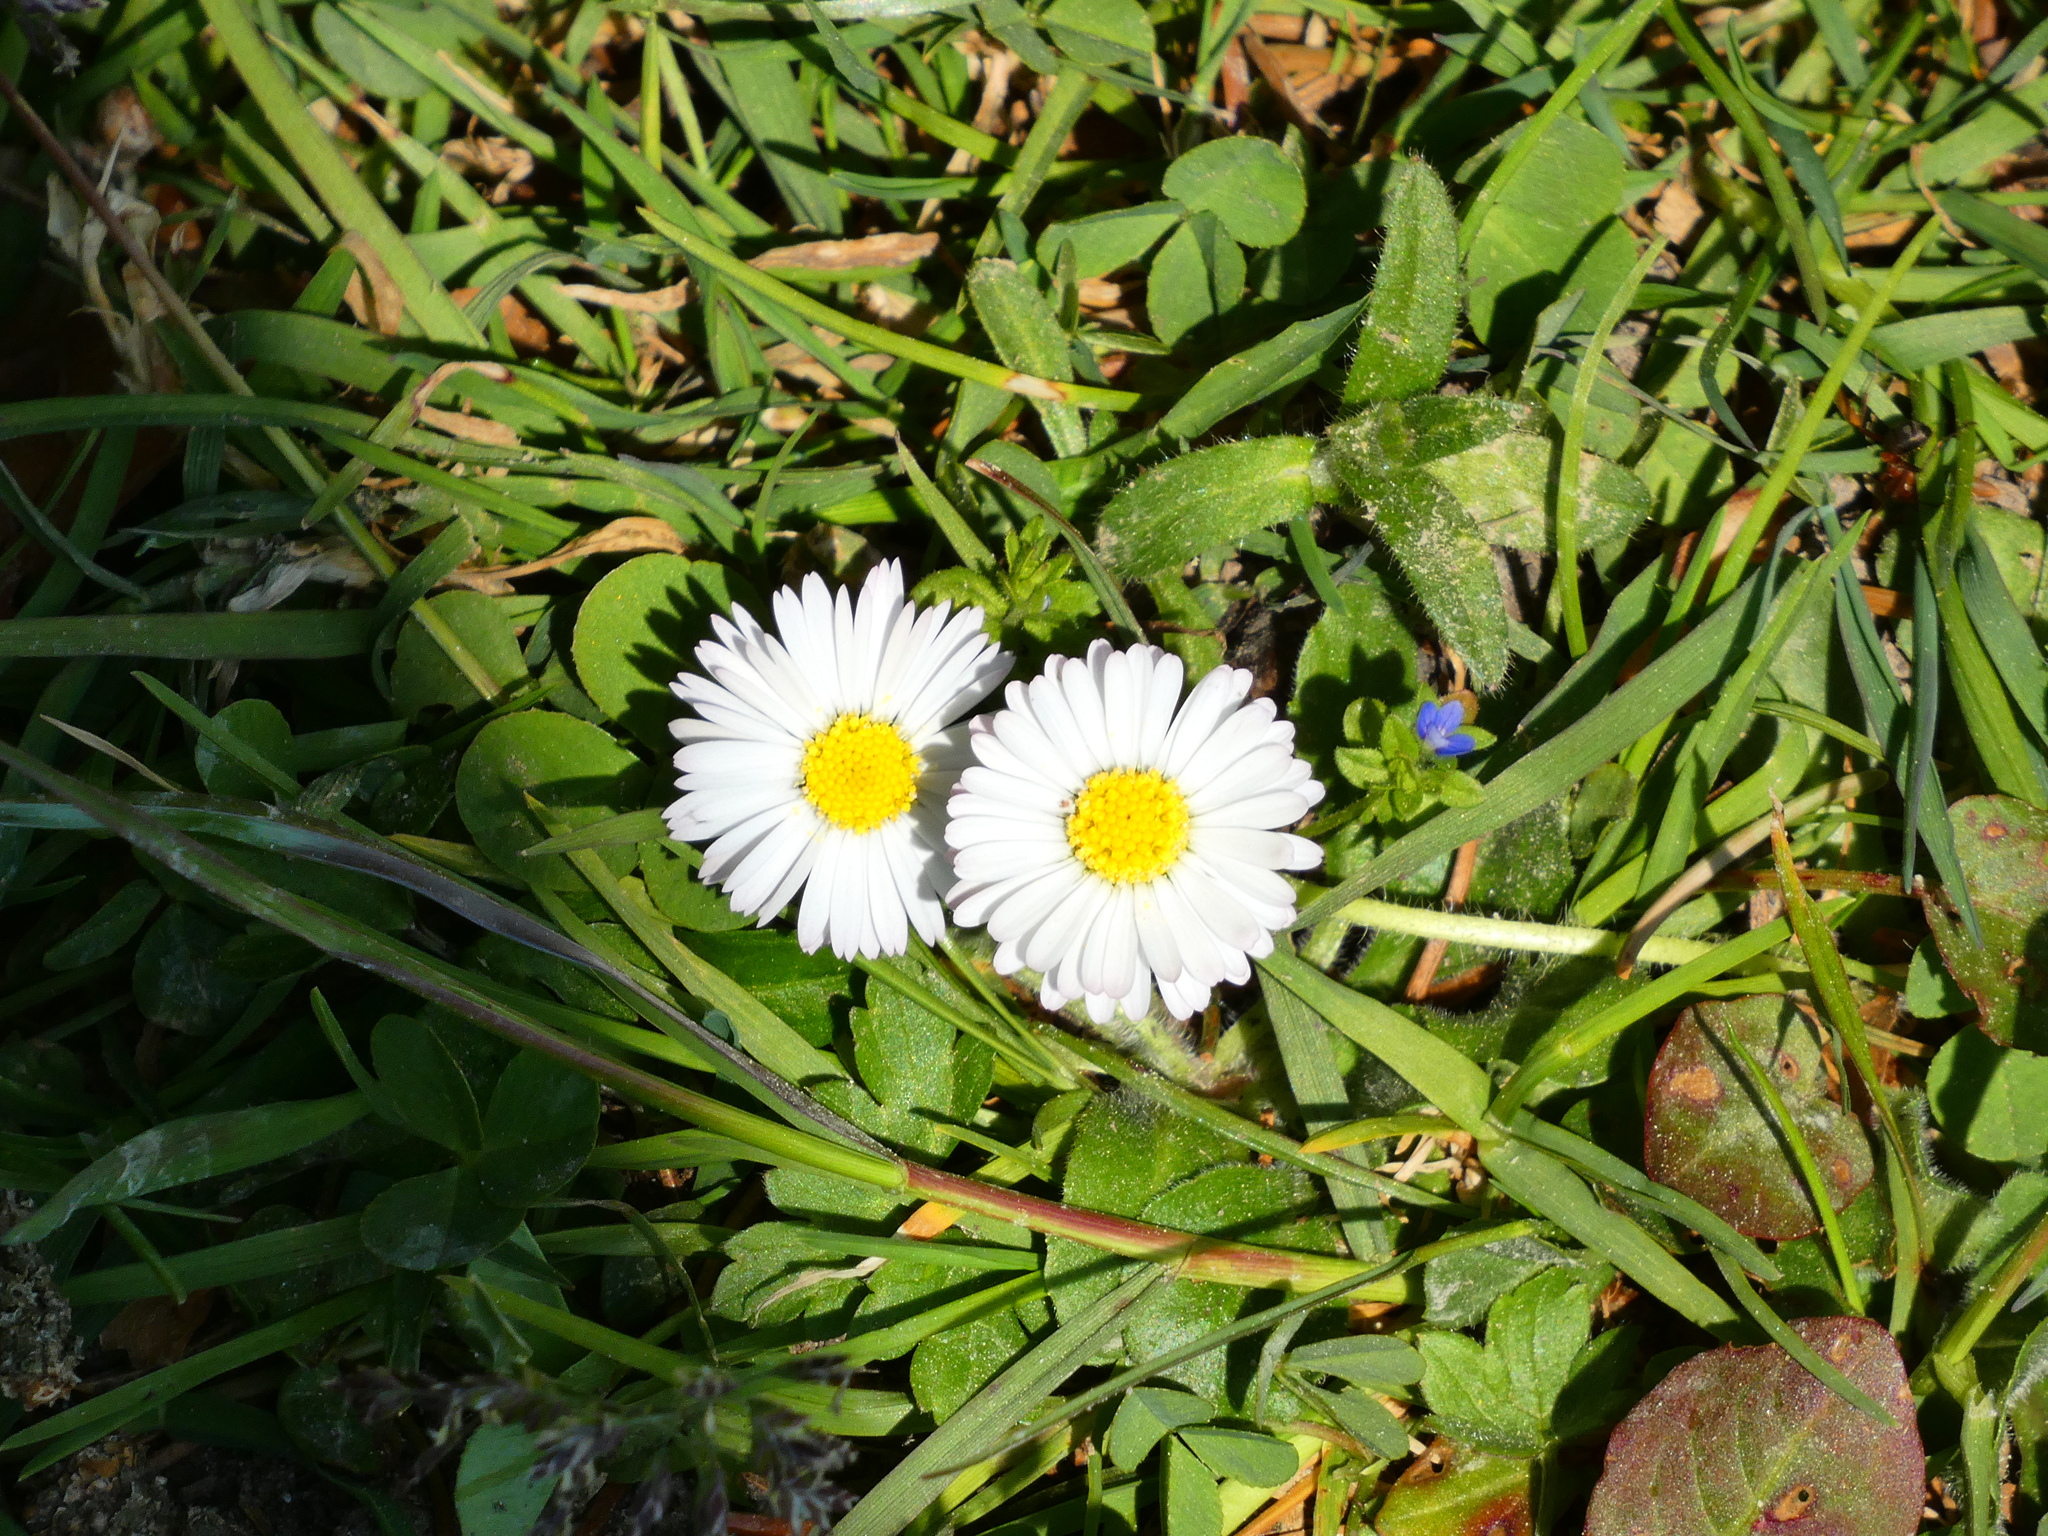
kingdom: Plantae
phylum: Tracheophyta
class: Magnoliopsida
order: Asterales
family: Asteraceae
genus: Bellis
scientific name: Bellis perennis
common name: Lawndaisy
